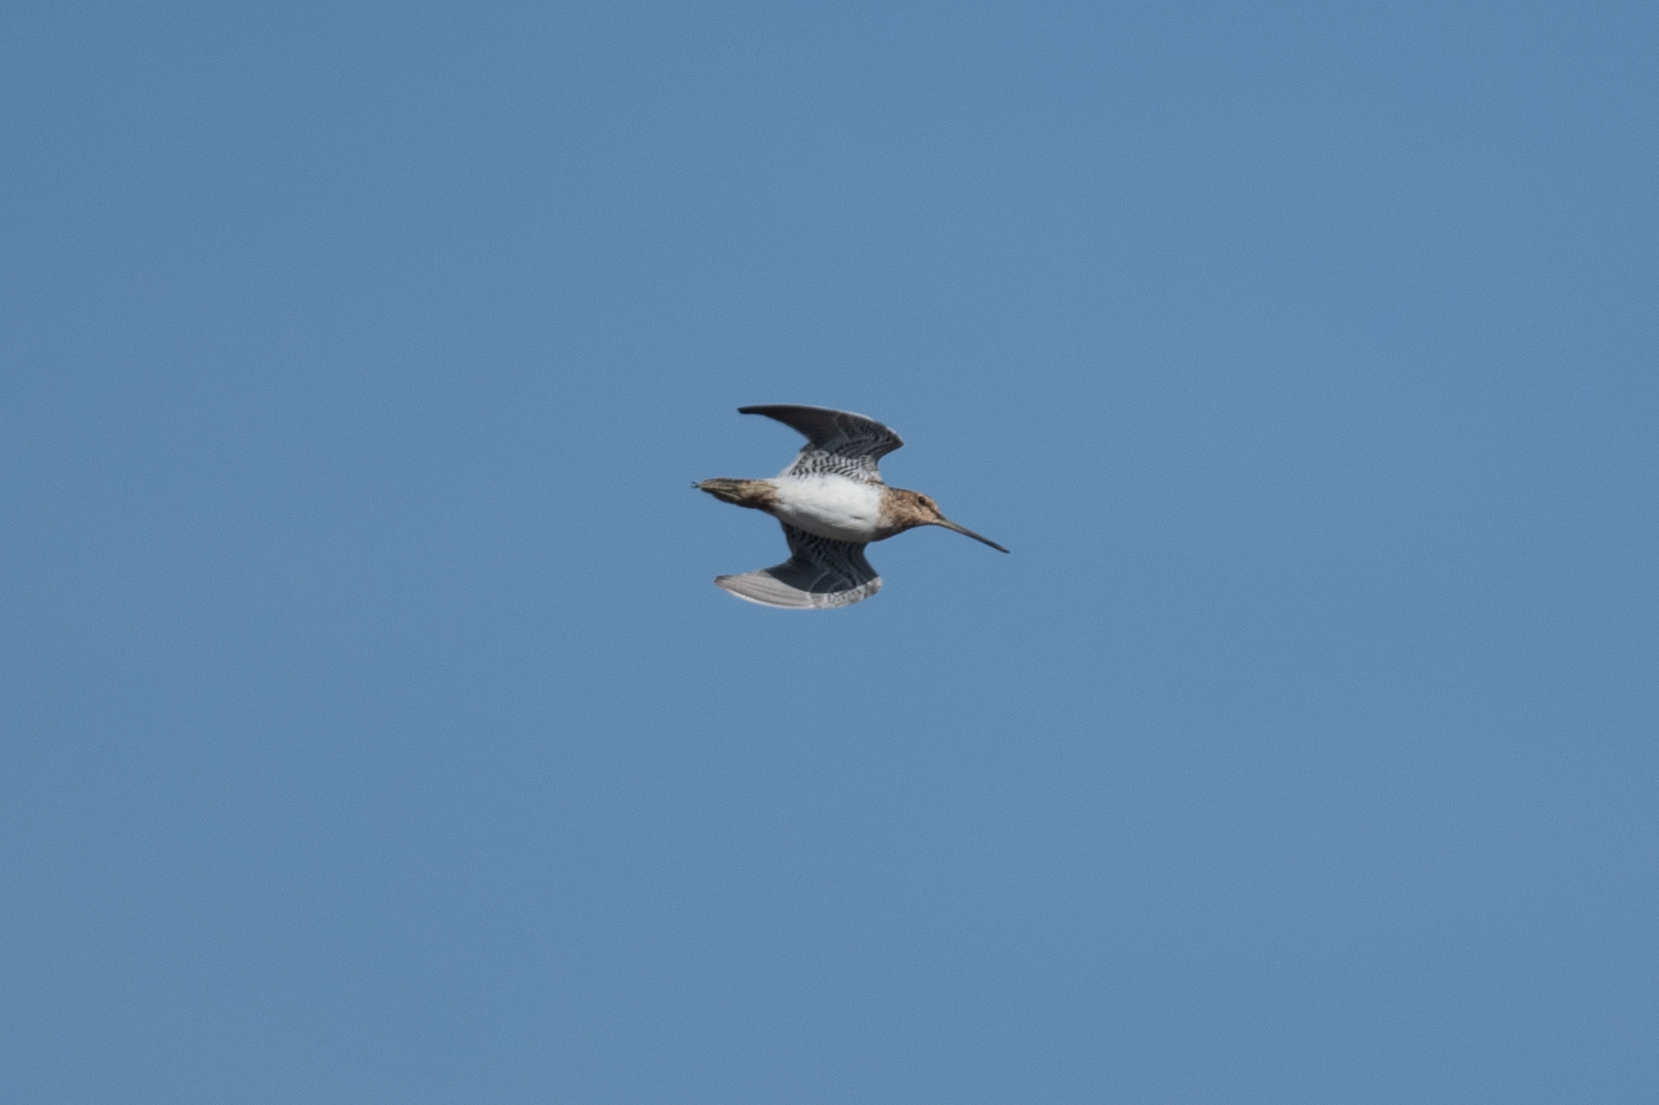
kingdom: Animalia
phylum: Chordata
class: Aves
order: Charadriiformes
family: Scolopacidae
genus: Gallinago
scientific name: Gallinago delicata
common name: Wilson's snipe
